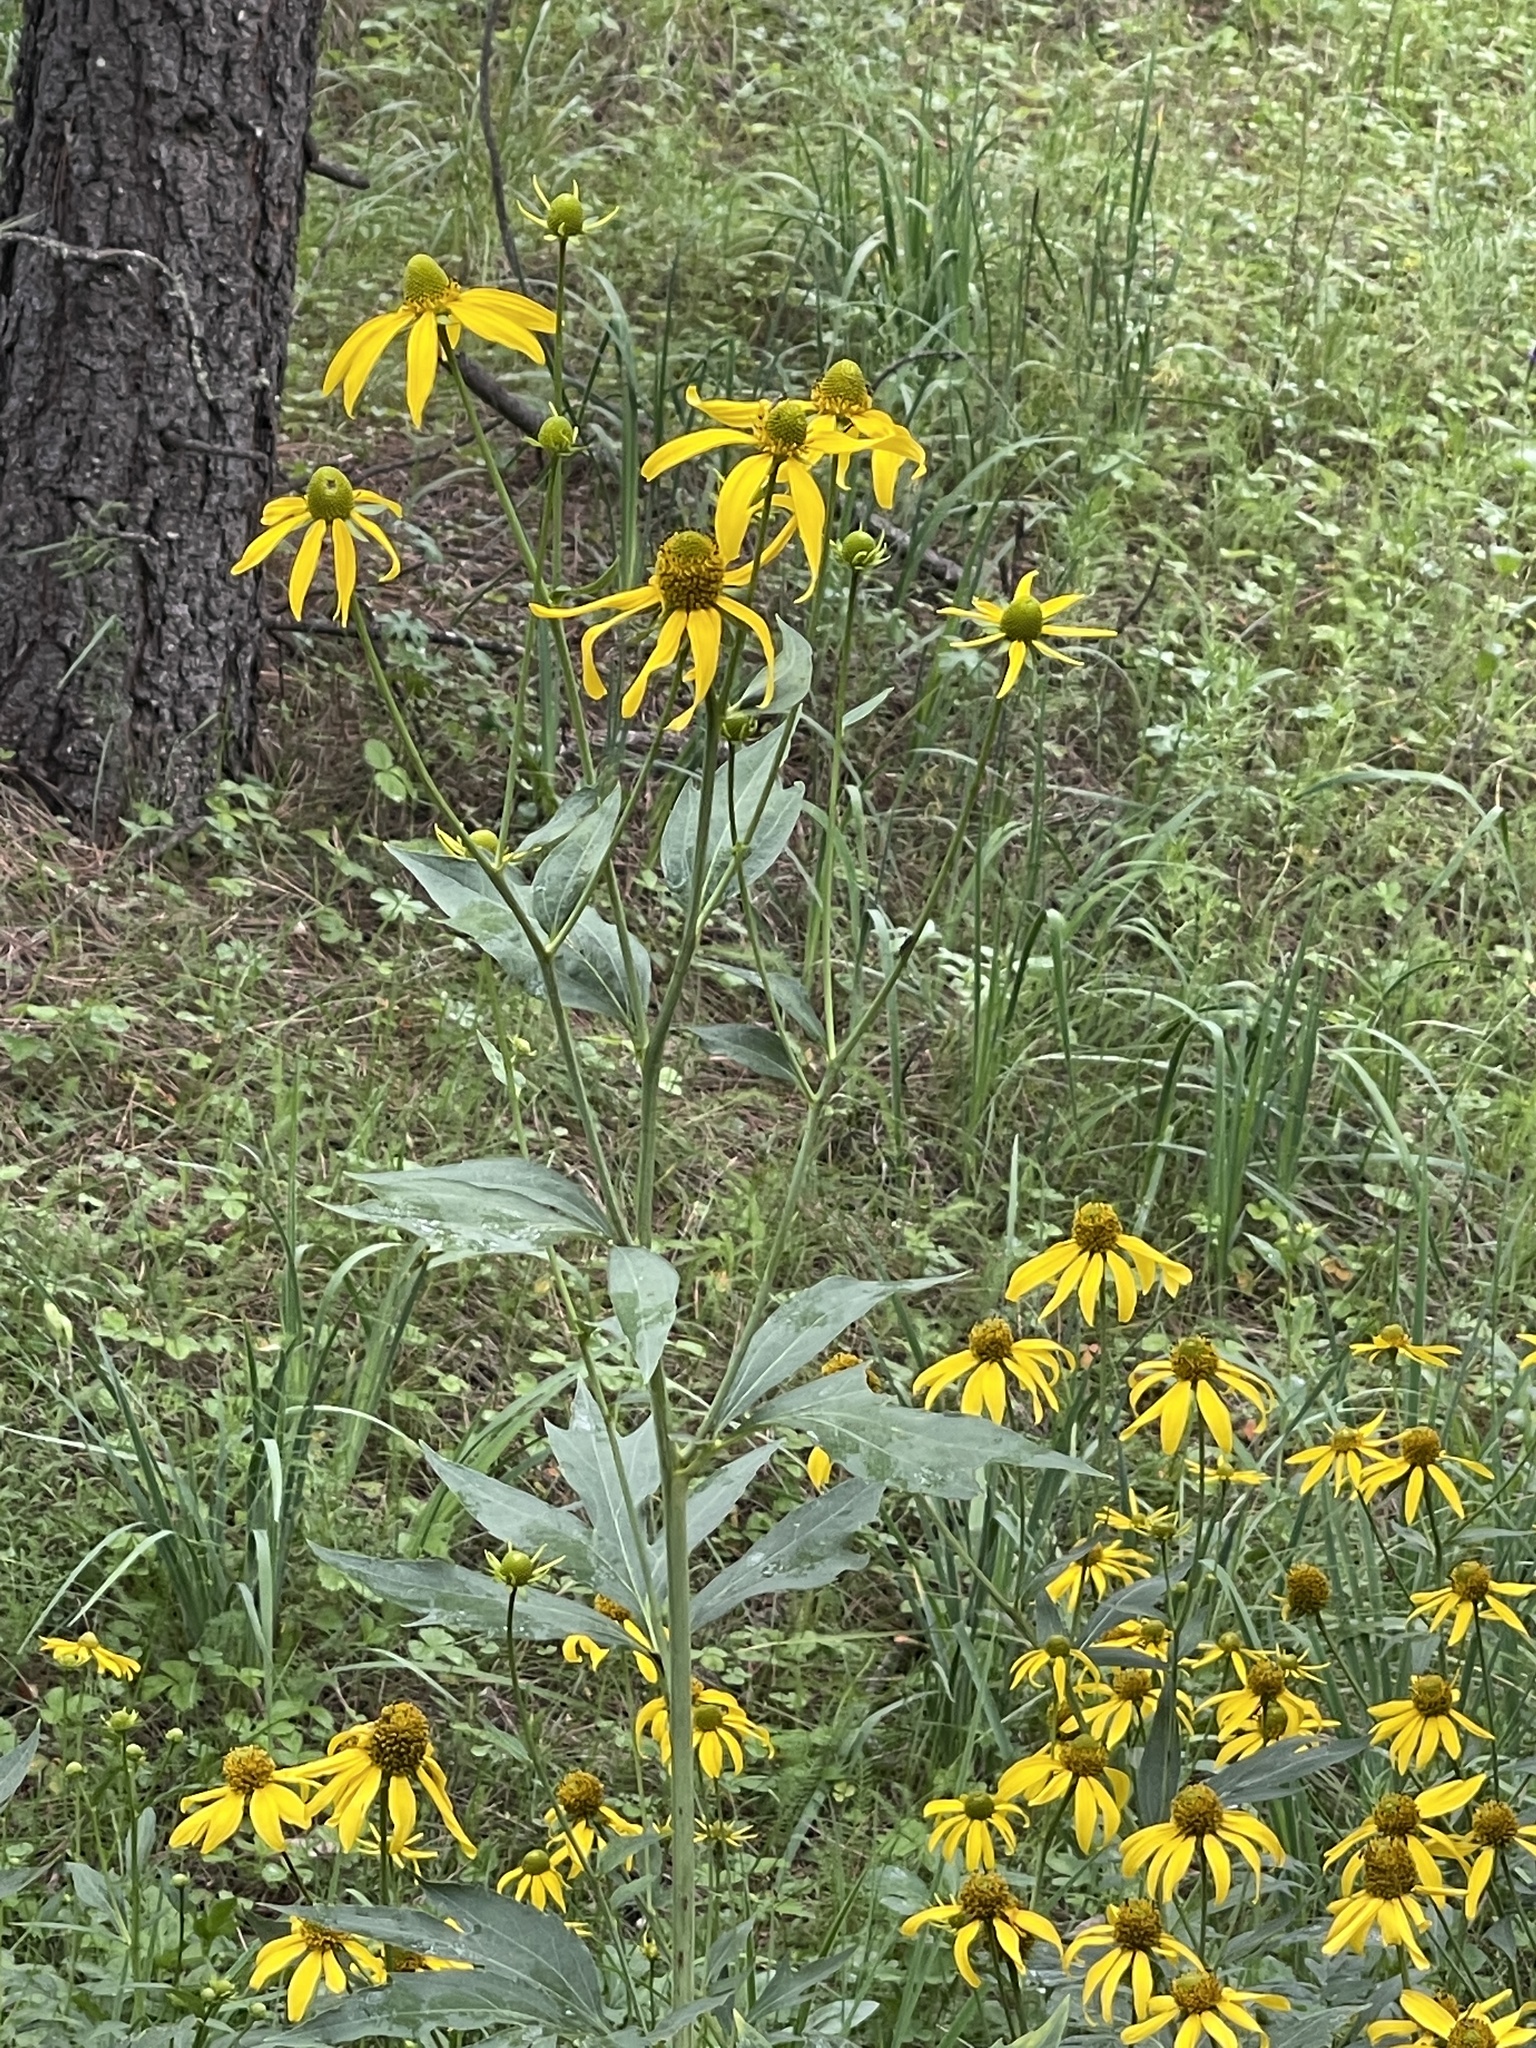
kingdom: Plantae
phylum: Tracheophyta
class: Magnoliopsida
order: Asterales
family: Asteraceae
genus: Rudbeckia
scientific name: Rudbeckia laciniata
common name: Coneflower
